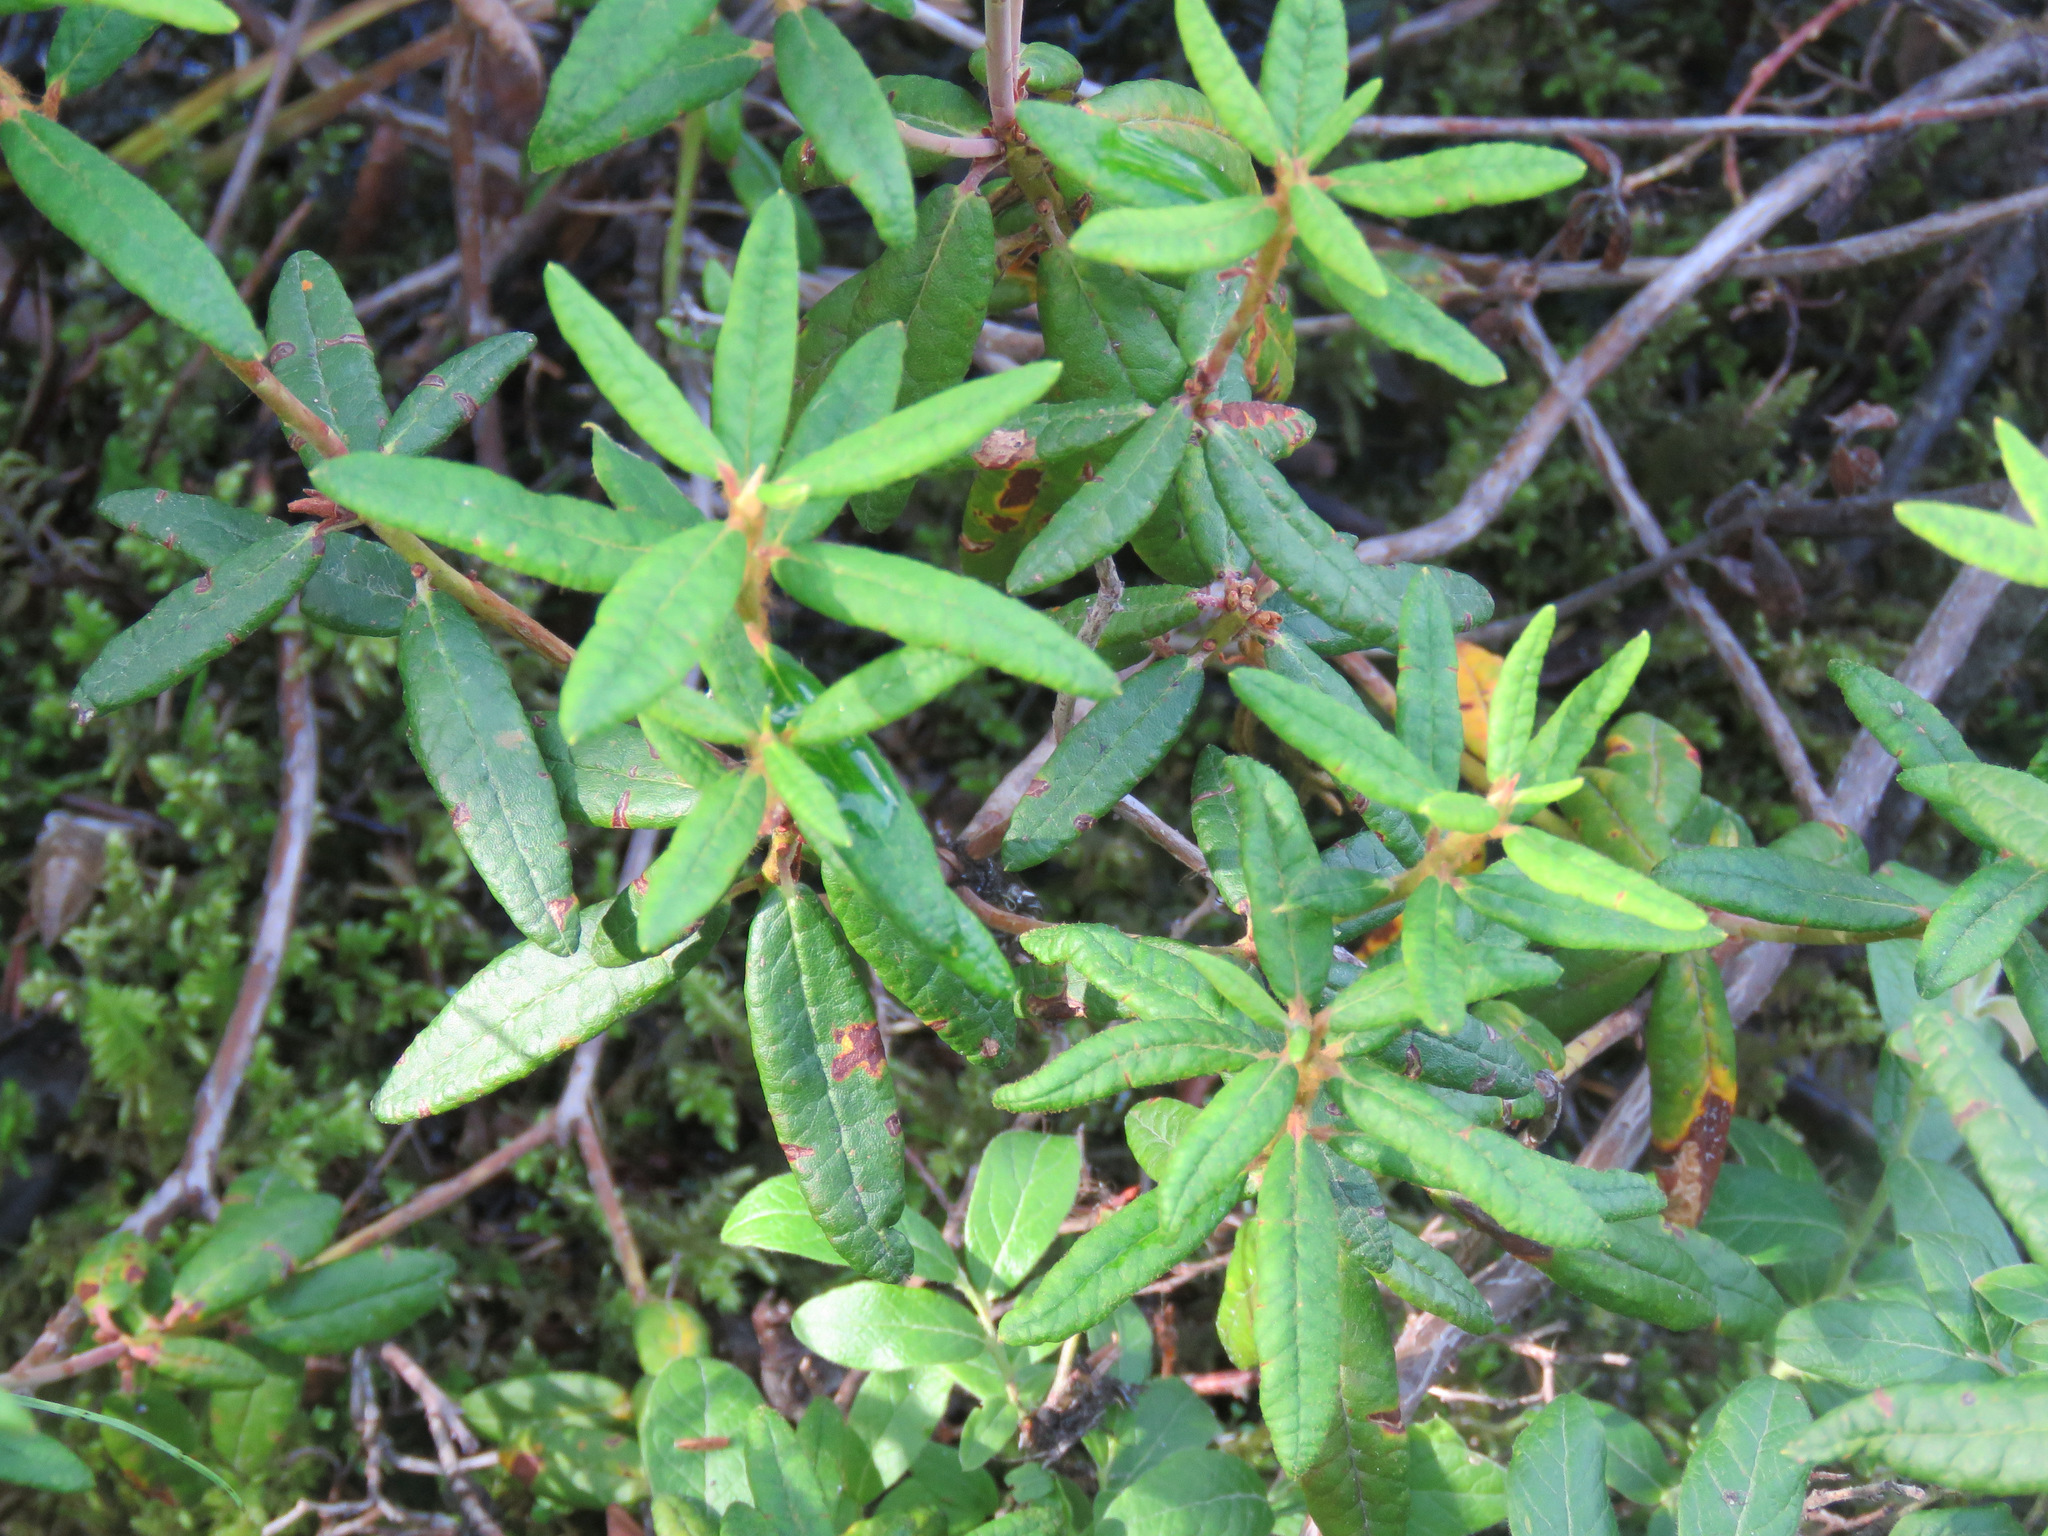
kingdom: Plantae
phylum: Tracheophyta
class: Magnoliopsida
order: Ericales
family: Ericaceae
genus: Rhododendron
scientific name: Rhododendron groenlandicum
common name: Bog labrador tea
